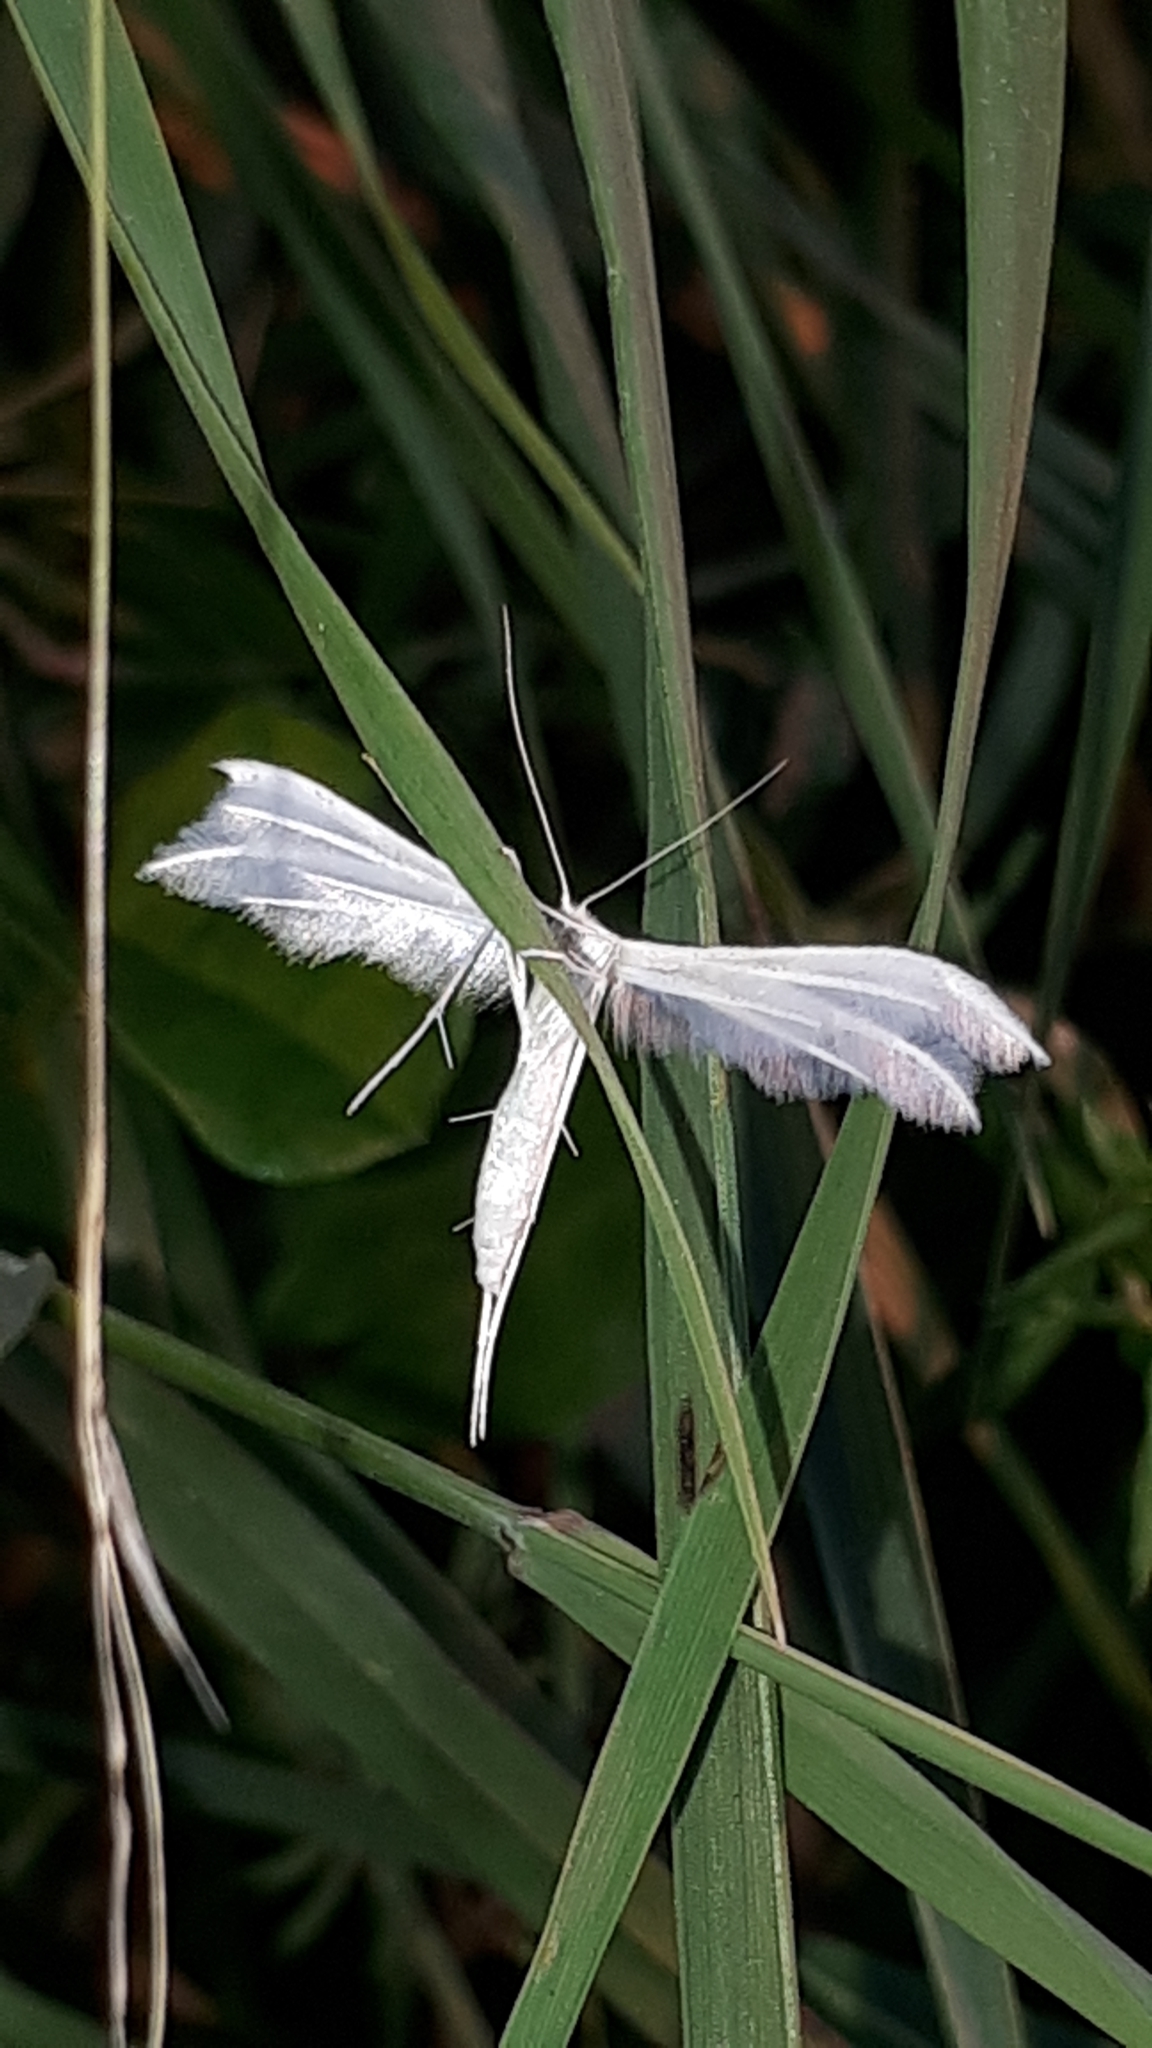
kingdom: Animalia
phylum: Arthropoda
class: Insecta
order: Lepidoptera
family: Pterophoridae
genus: Pterophorus
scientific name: Pterophorus pentadactyla
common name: White plume moth
